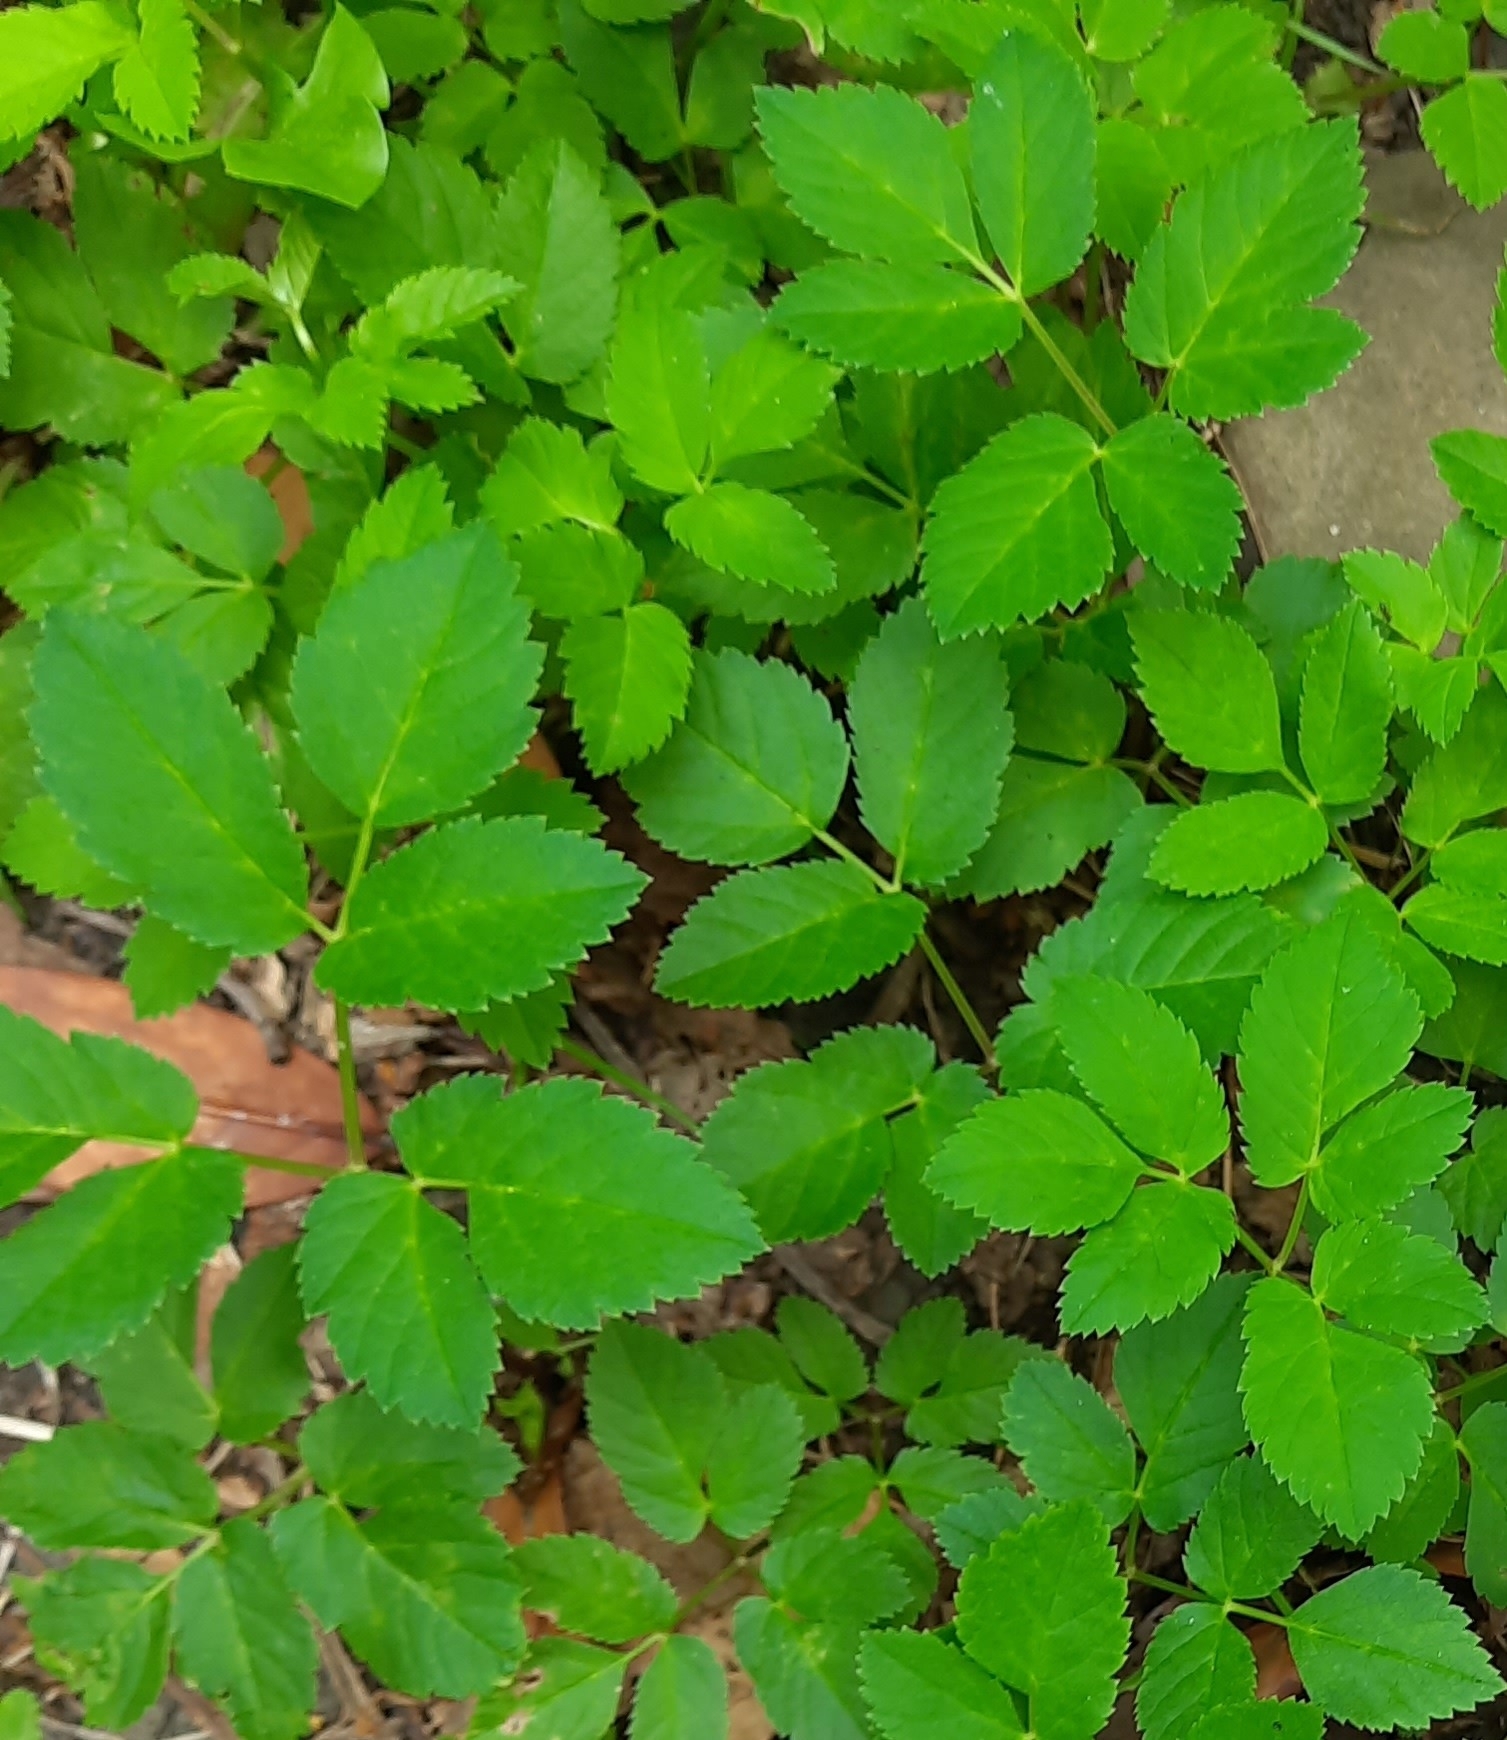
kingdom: Plantae
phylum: Tracheophyta
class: Magnoliopsida
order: Apiales
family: Apiaceae
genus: Aegopodium
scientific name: Aegopodium podagraria
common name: Ground-elder
